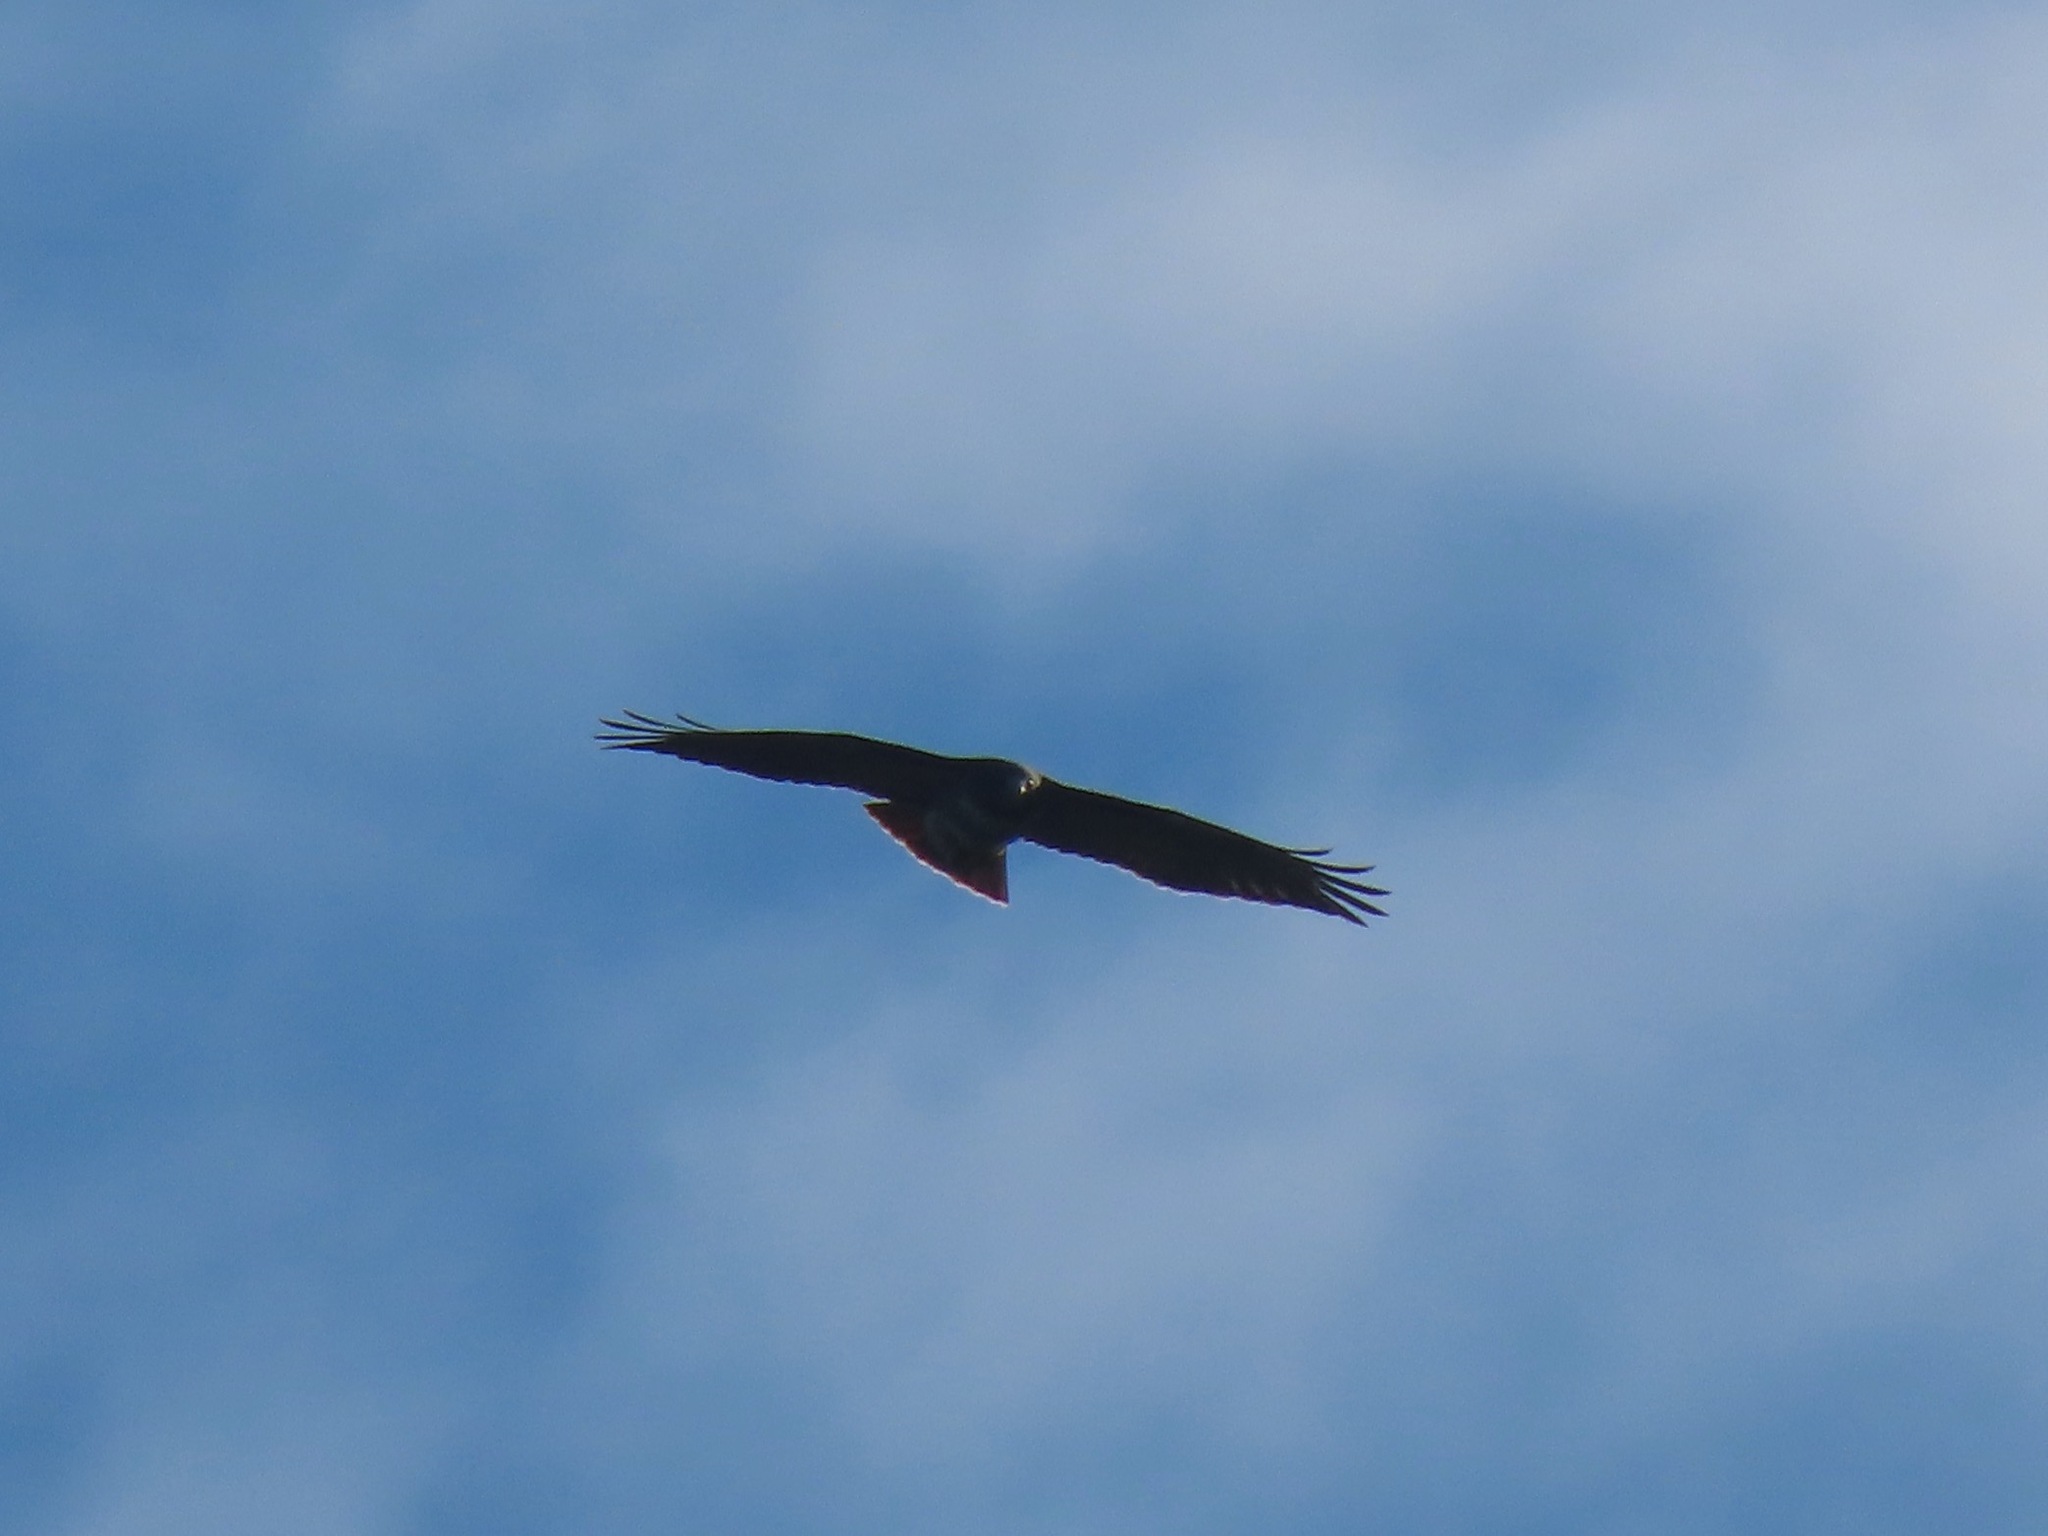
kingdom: Animalia
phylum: Chordata
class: Aves
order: Accipitriformes
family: Accipitridae
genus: Buteo
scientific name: Buteo jamaicensis
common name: Red-tailed hawk
